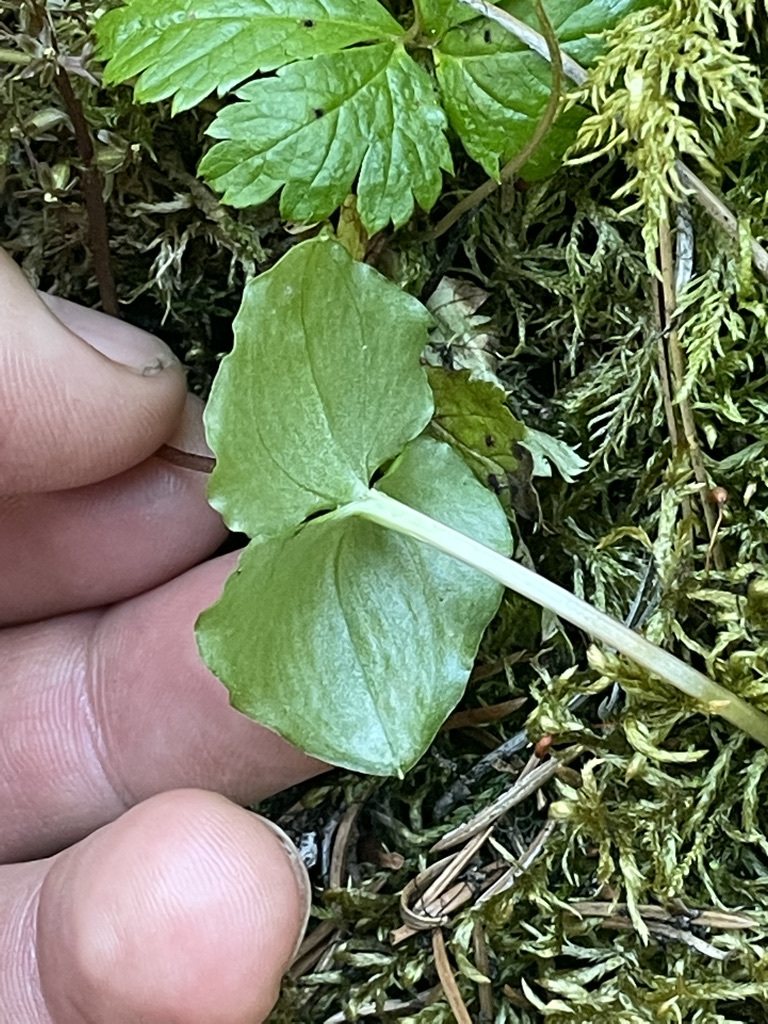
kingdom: Plantae
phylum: Tracheophyta
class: Liliopsida
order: Asparagales
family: Orchidaceae
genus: Neottia
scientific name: Neottia cordata
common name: Lesser twayblade
